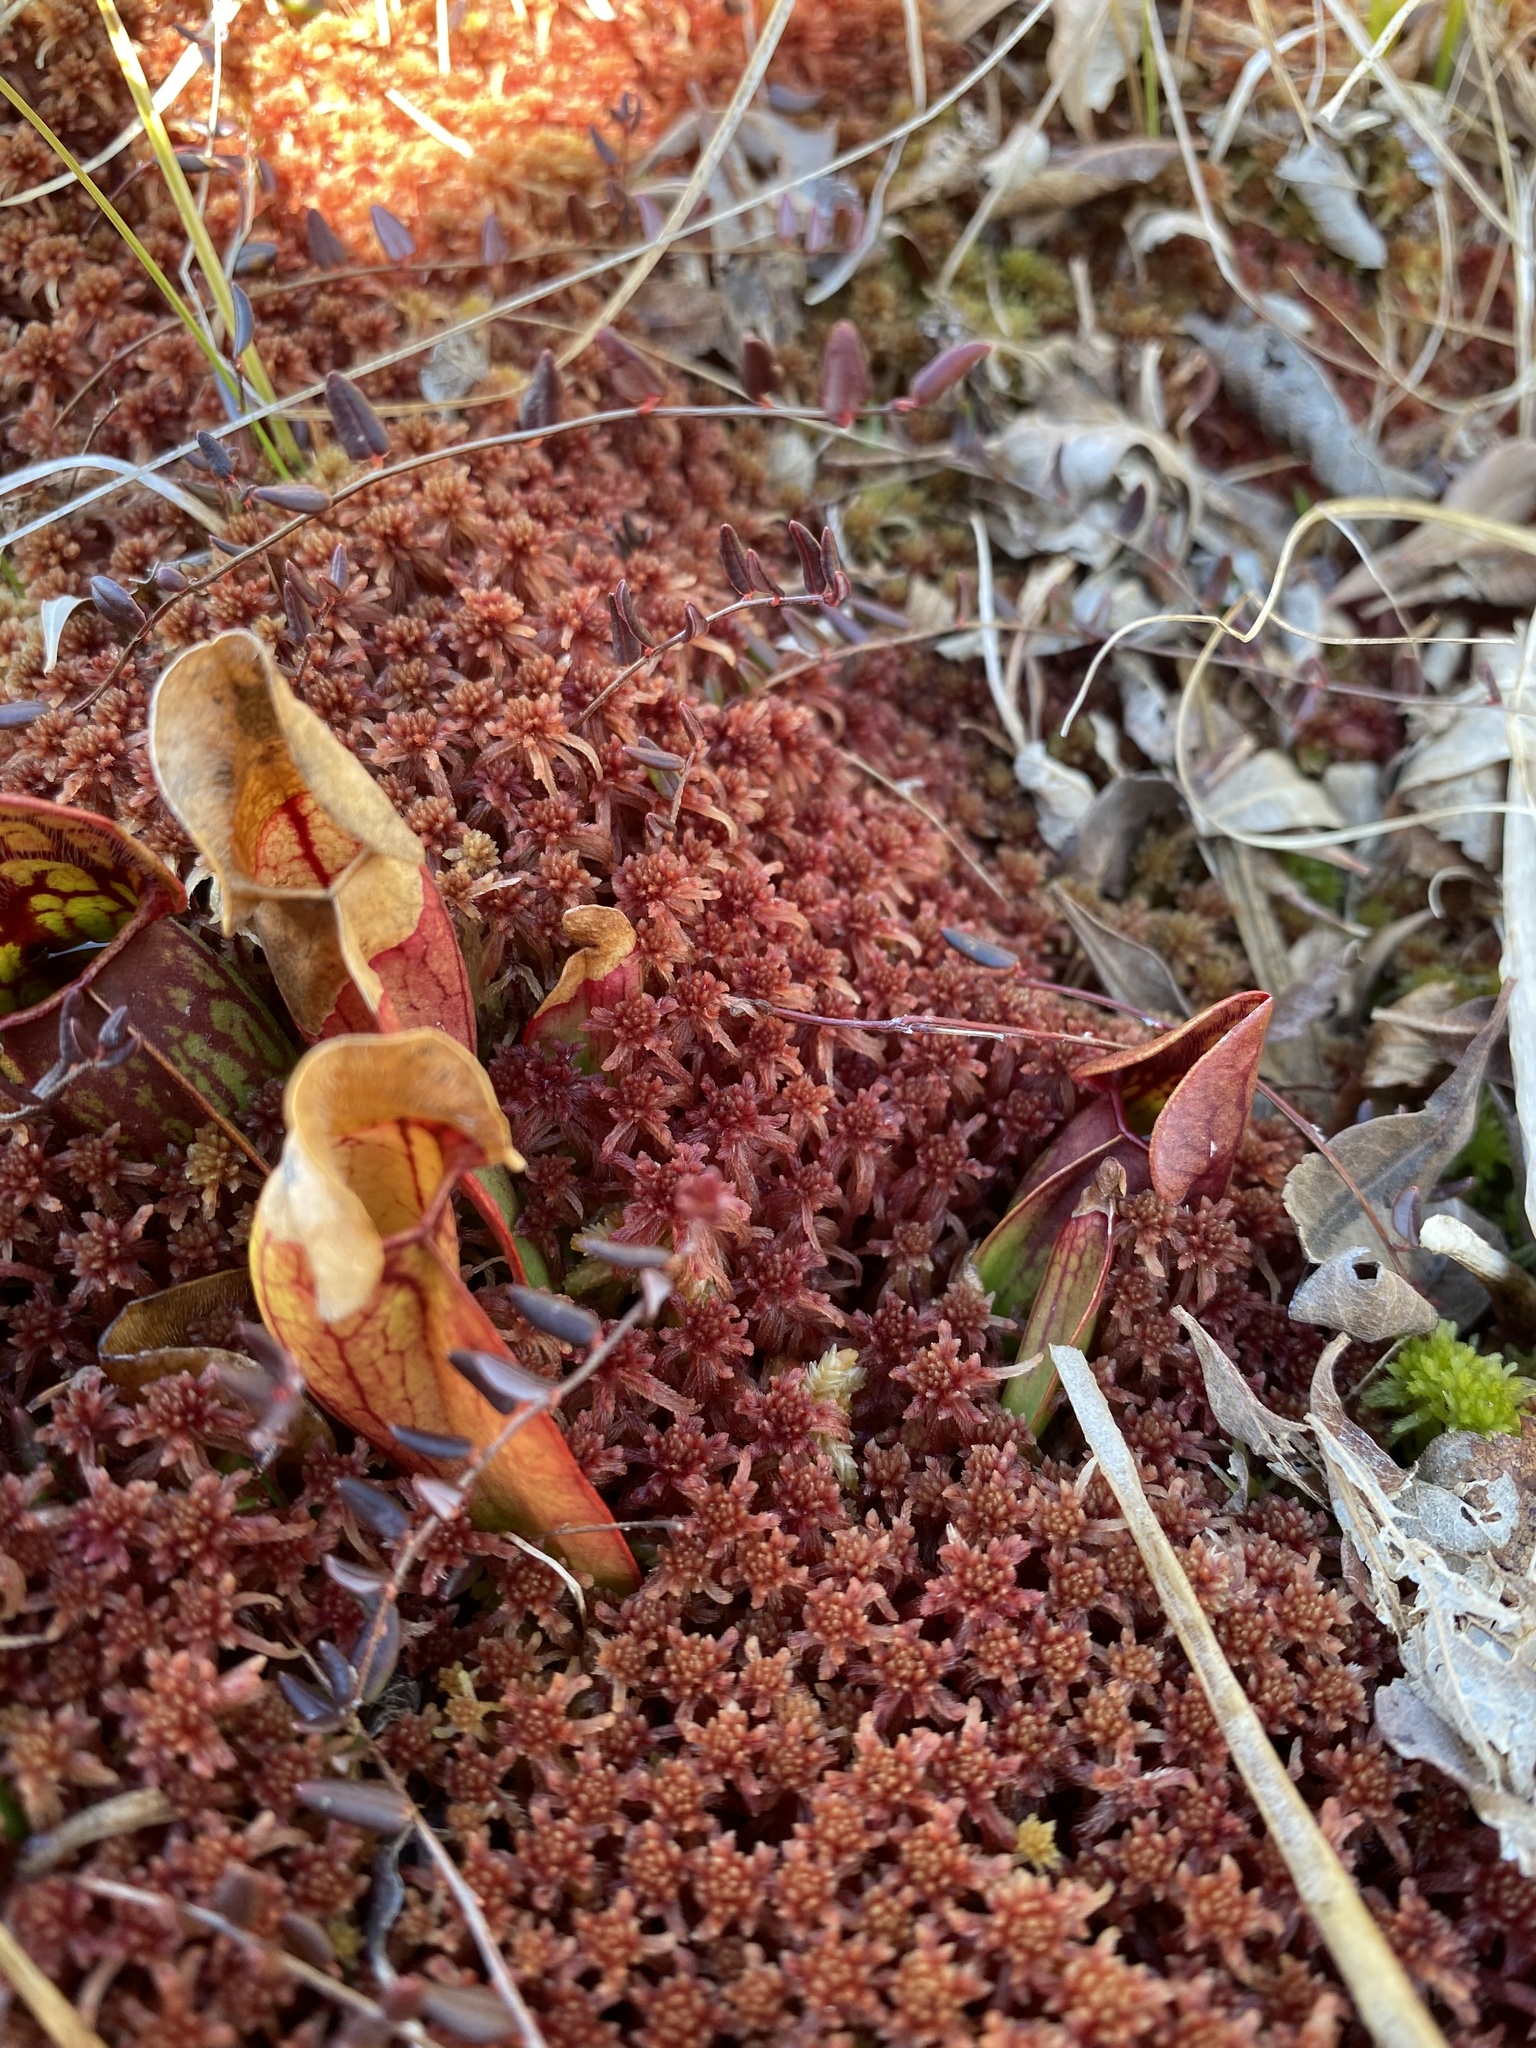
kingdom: Plantae
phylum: Tracheophyta
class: Magnoliopsida
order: Ericales
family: Sarraceniaceae
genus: Sarracenia
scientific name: Sarracenia purpurea
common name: Pitcherplant
